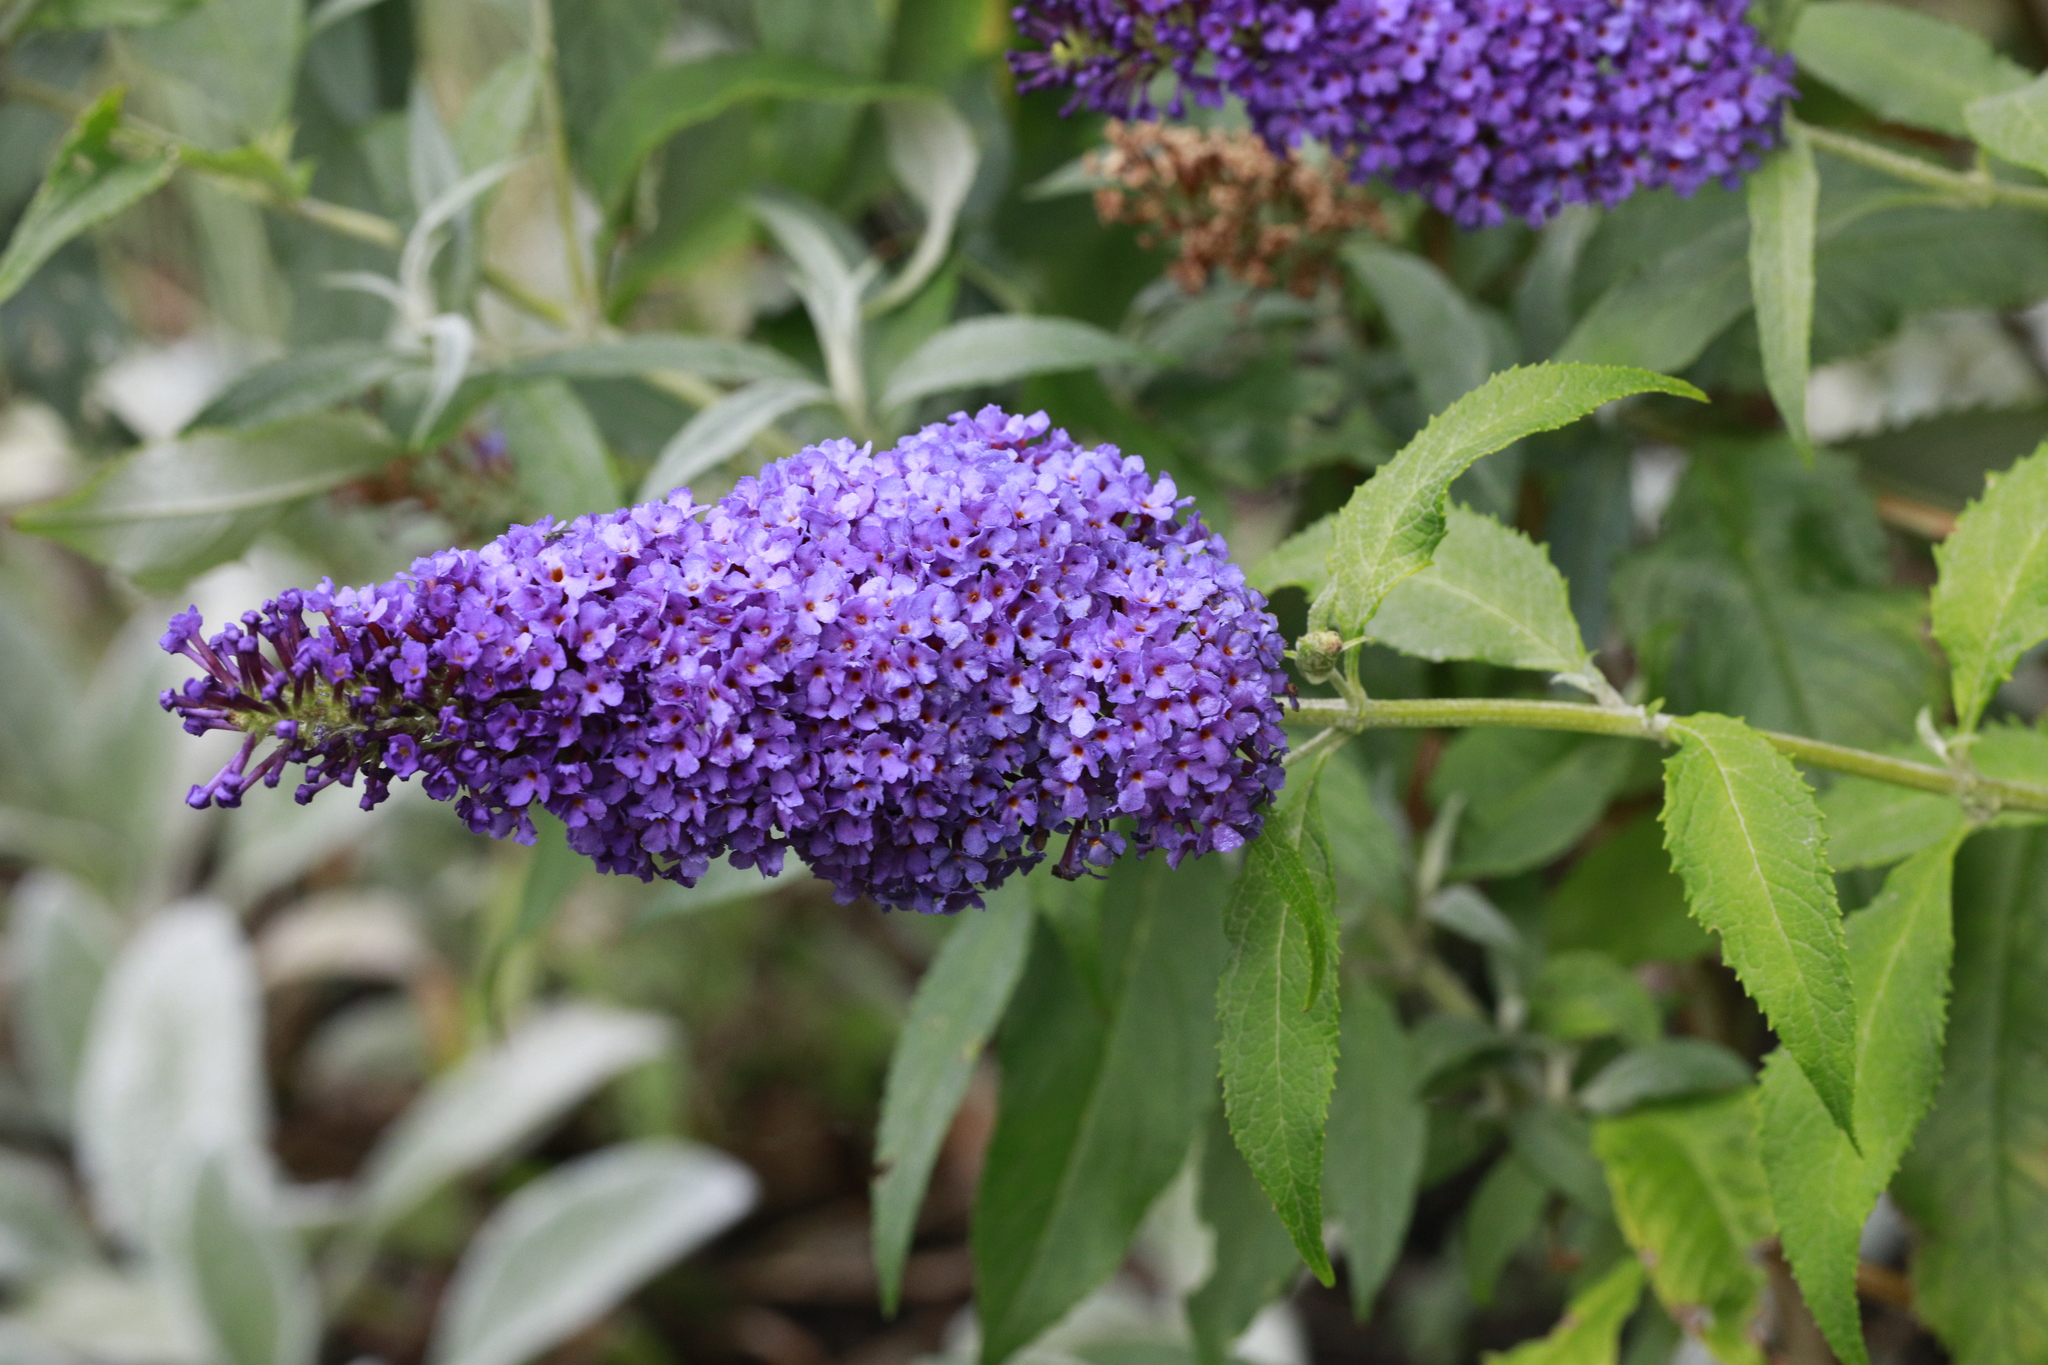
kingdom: Plantae
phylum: Tracheophyta
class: Magnoliopsida
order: Lamiales
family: Scrophulariaceae
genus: Buddleja
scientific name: Buddleja davidii
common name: Butterfly-bush
